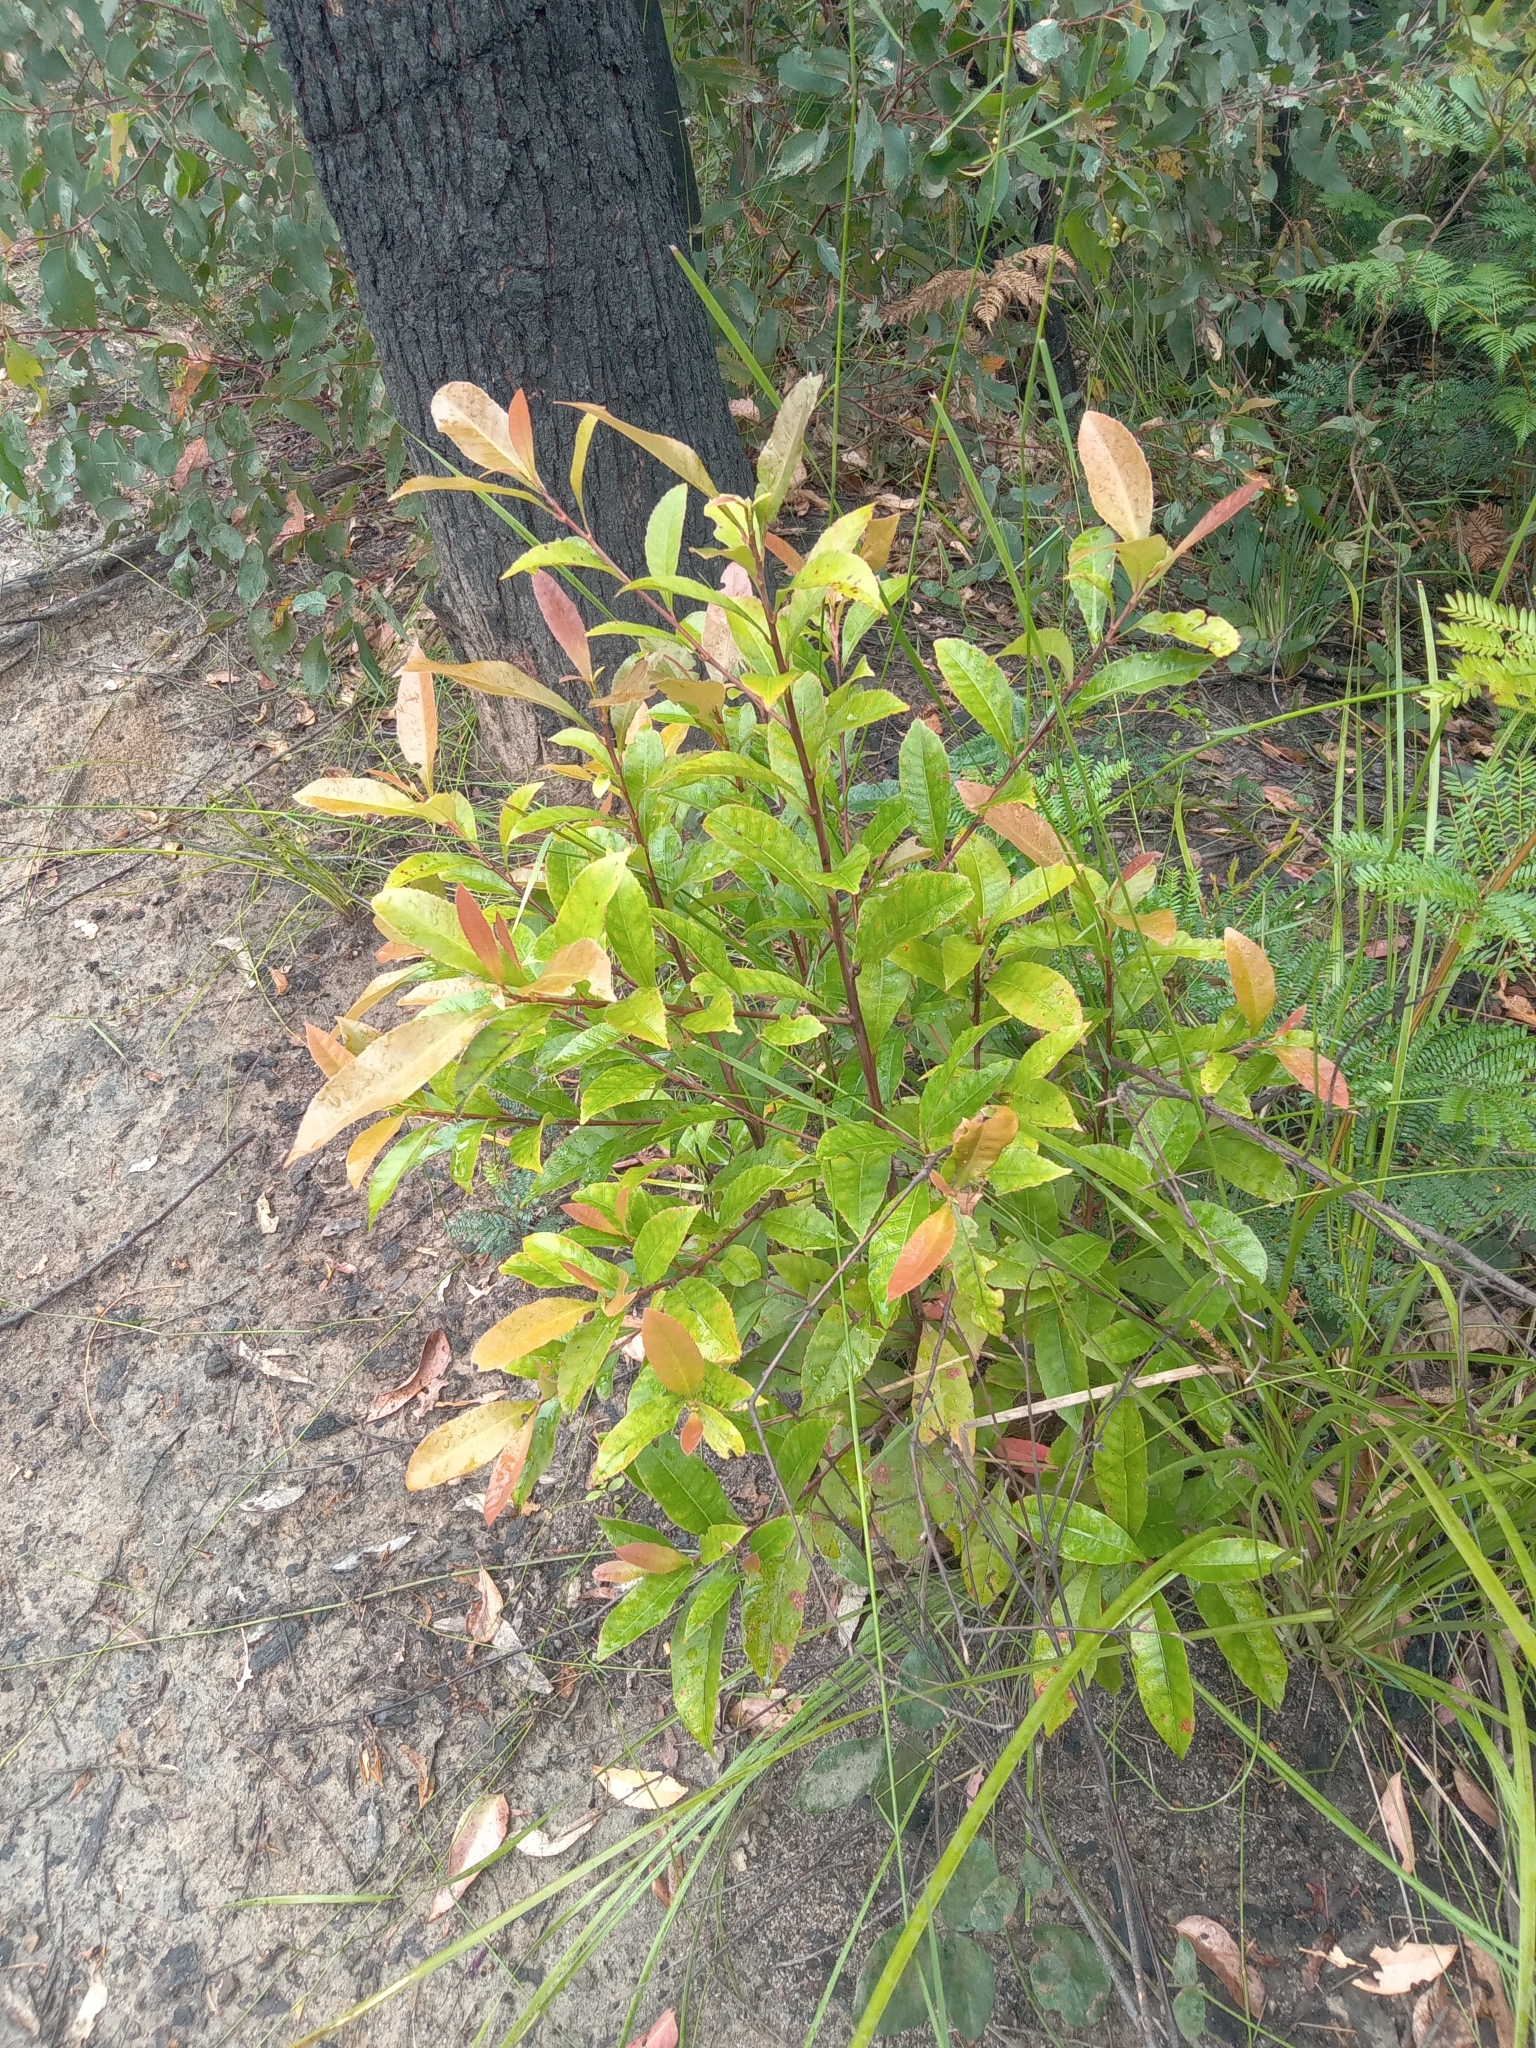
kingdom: Plantae
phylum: Tracheophyta
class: Magnoliopsida
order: Oxalidales
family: Elaeocarpaceae
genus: Elaeocarpus
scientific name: Elaeocarpus reticulatus
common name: Ash quandong
